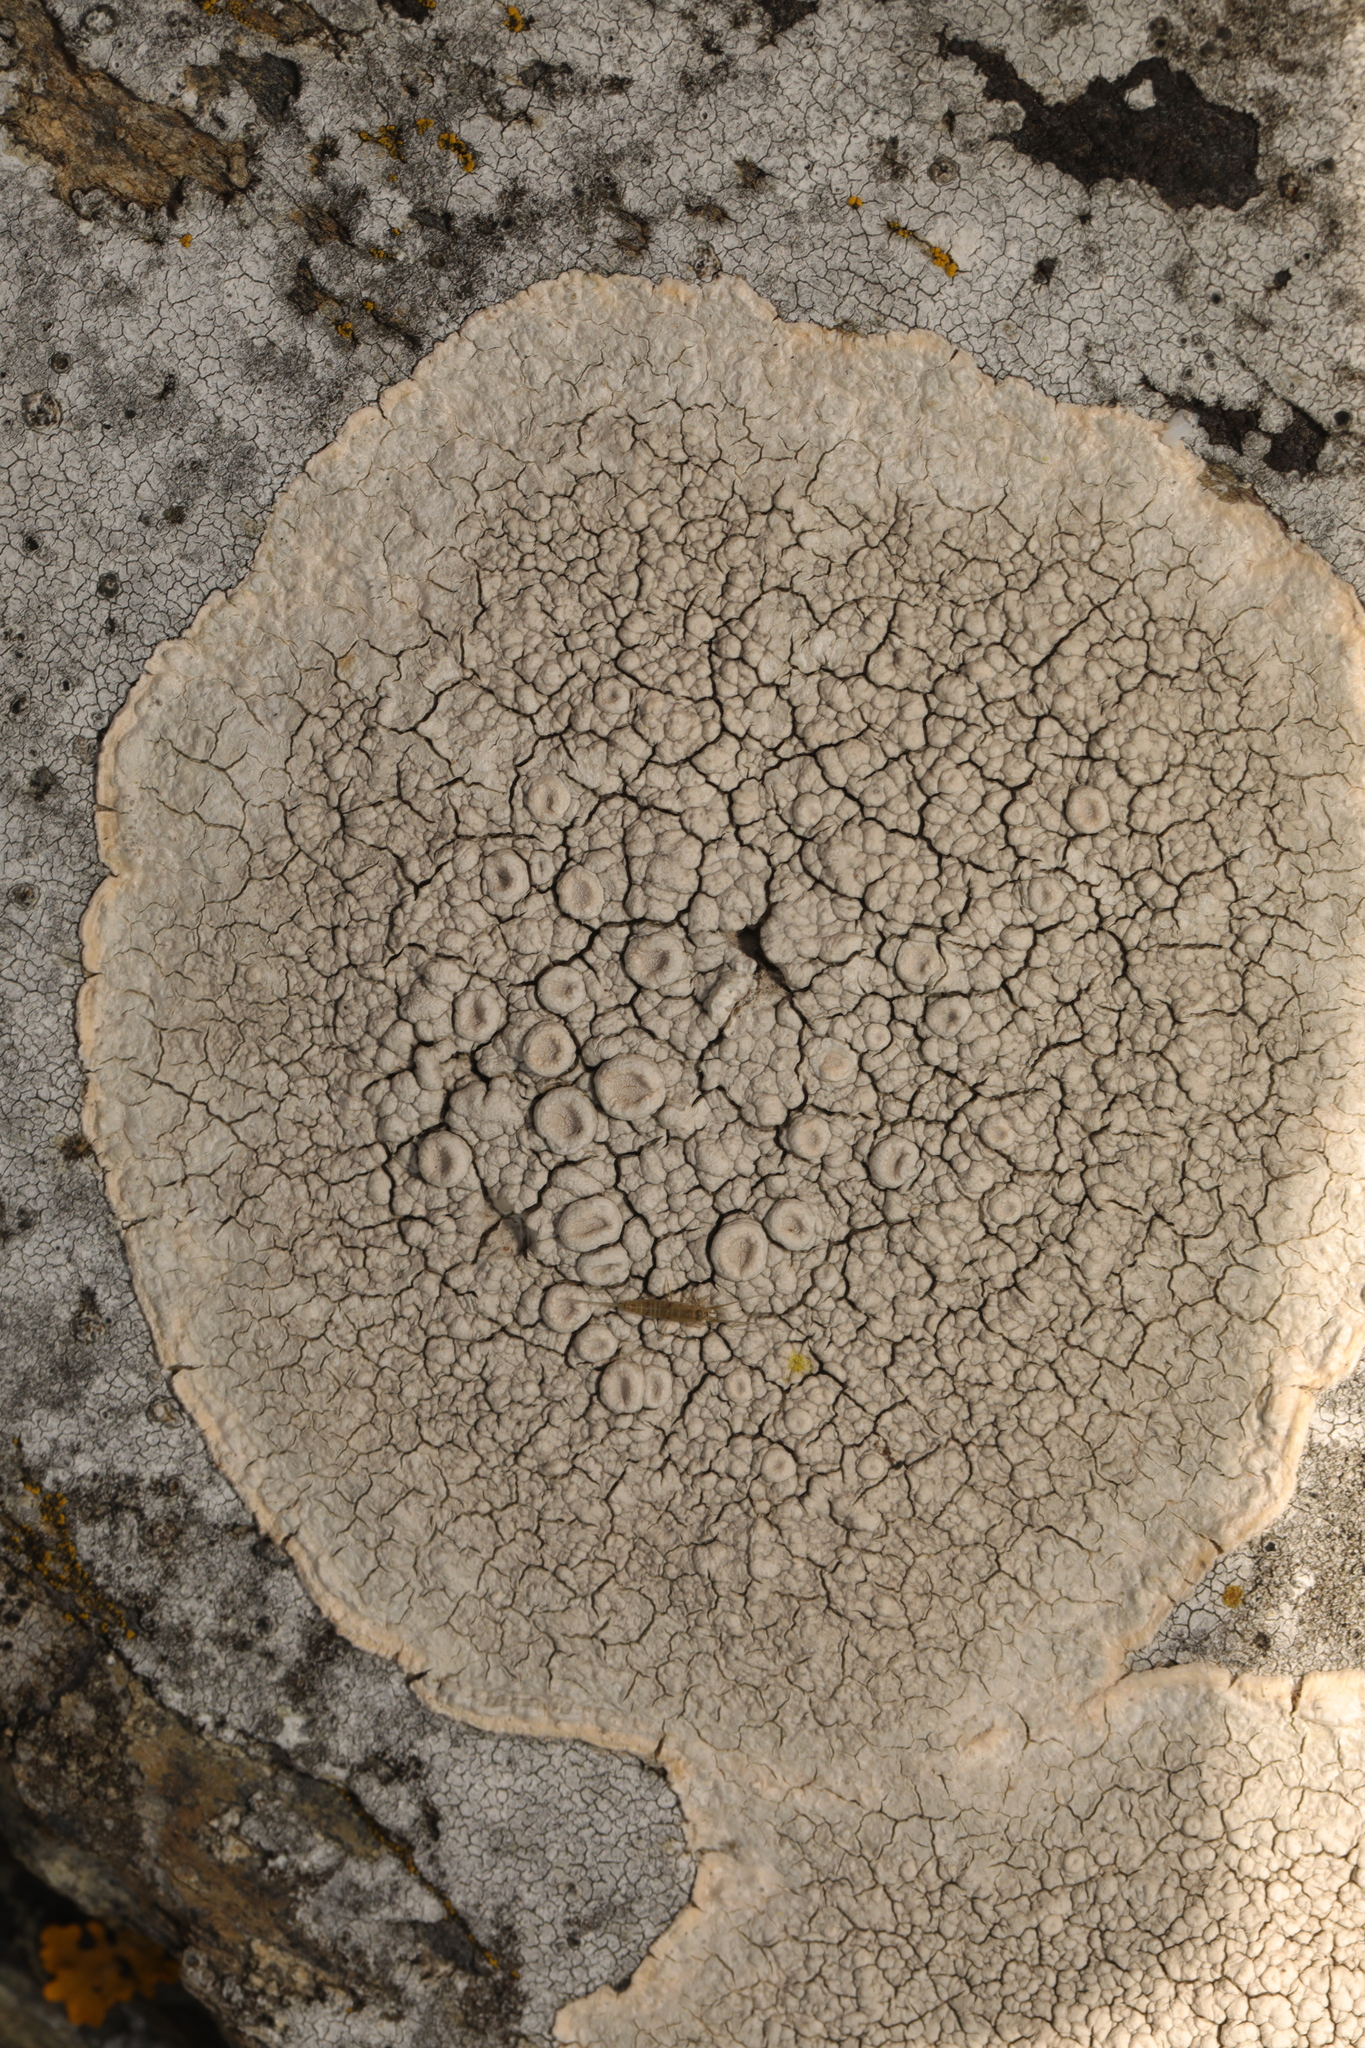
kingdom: Fungi
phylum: Ascomycota
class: Lecanoromycetes
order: Pertusariales
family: Ochrolechiaceae
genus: Ochrolechia
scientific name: Ochrolechia parella
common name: Crab's eye lichen
